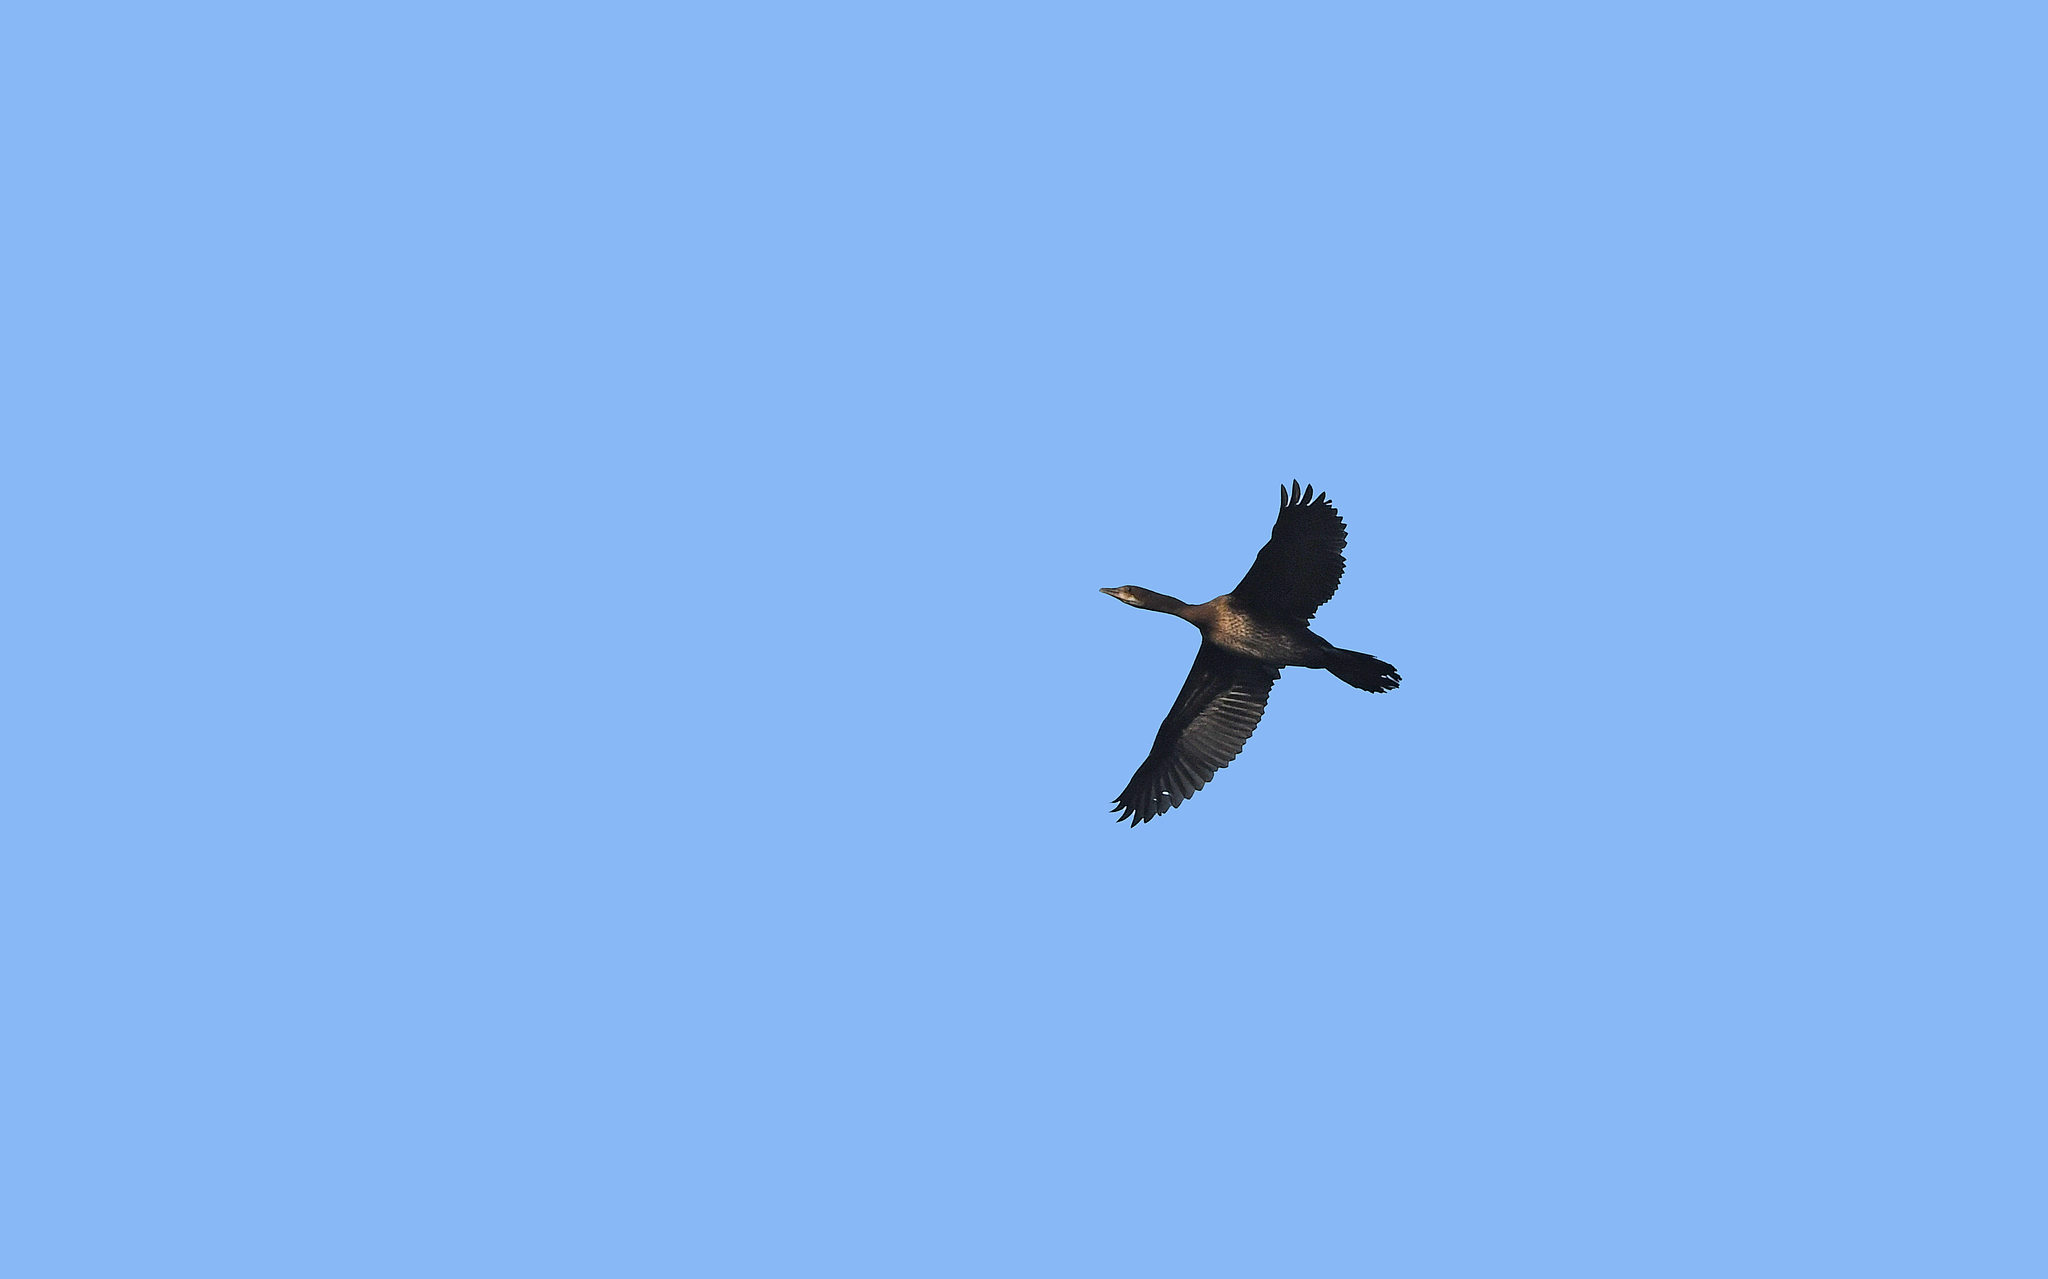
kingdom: Animalia
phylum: Chordata
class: Aves
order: Suliformes
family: Phalacrocoracidae
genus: Microcarbo
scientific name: Microcarbo pygmaeus
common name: Pygmy cormorant
